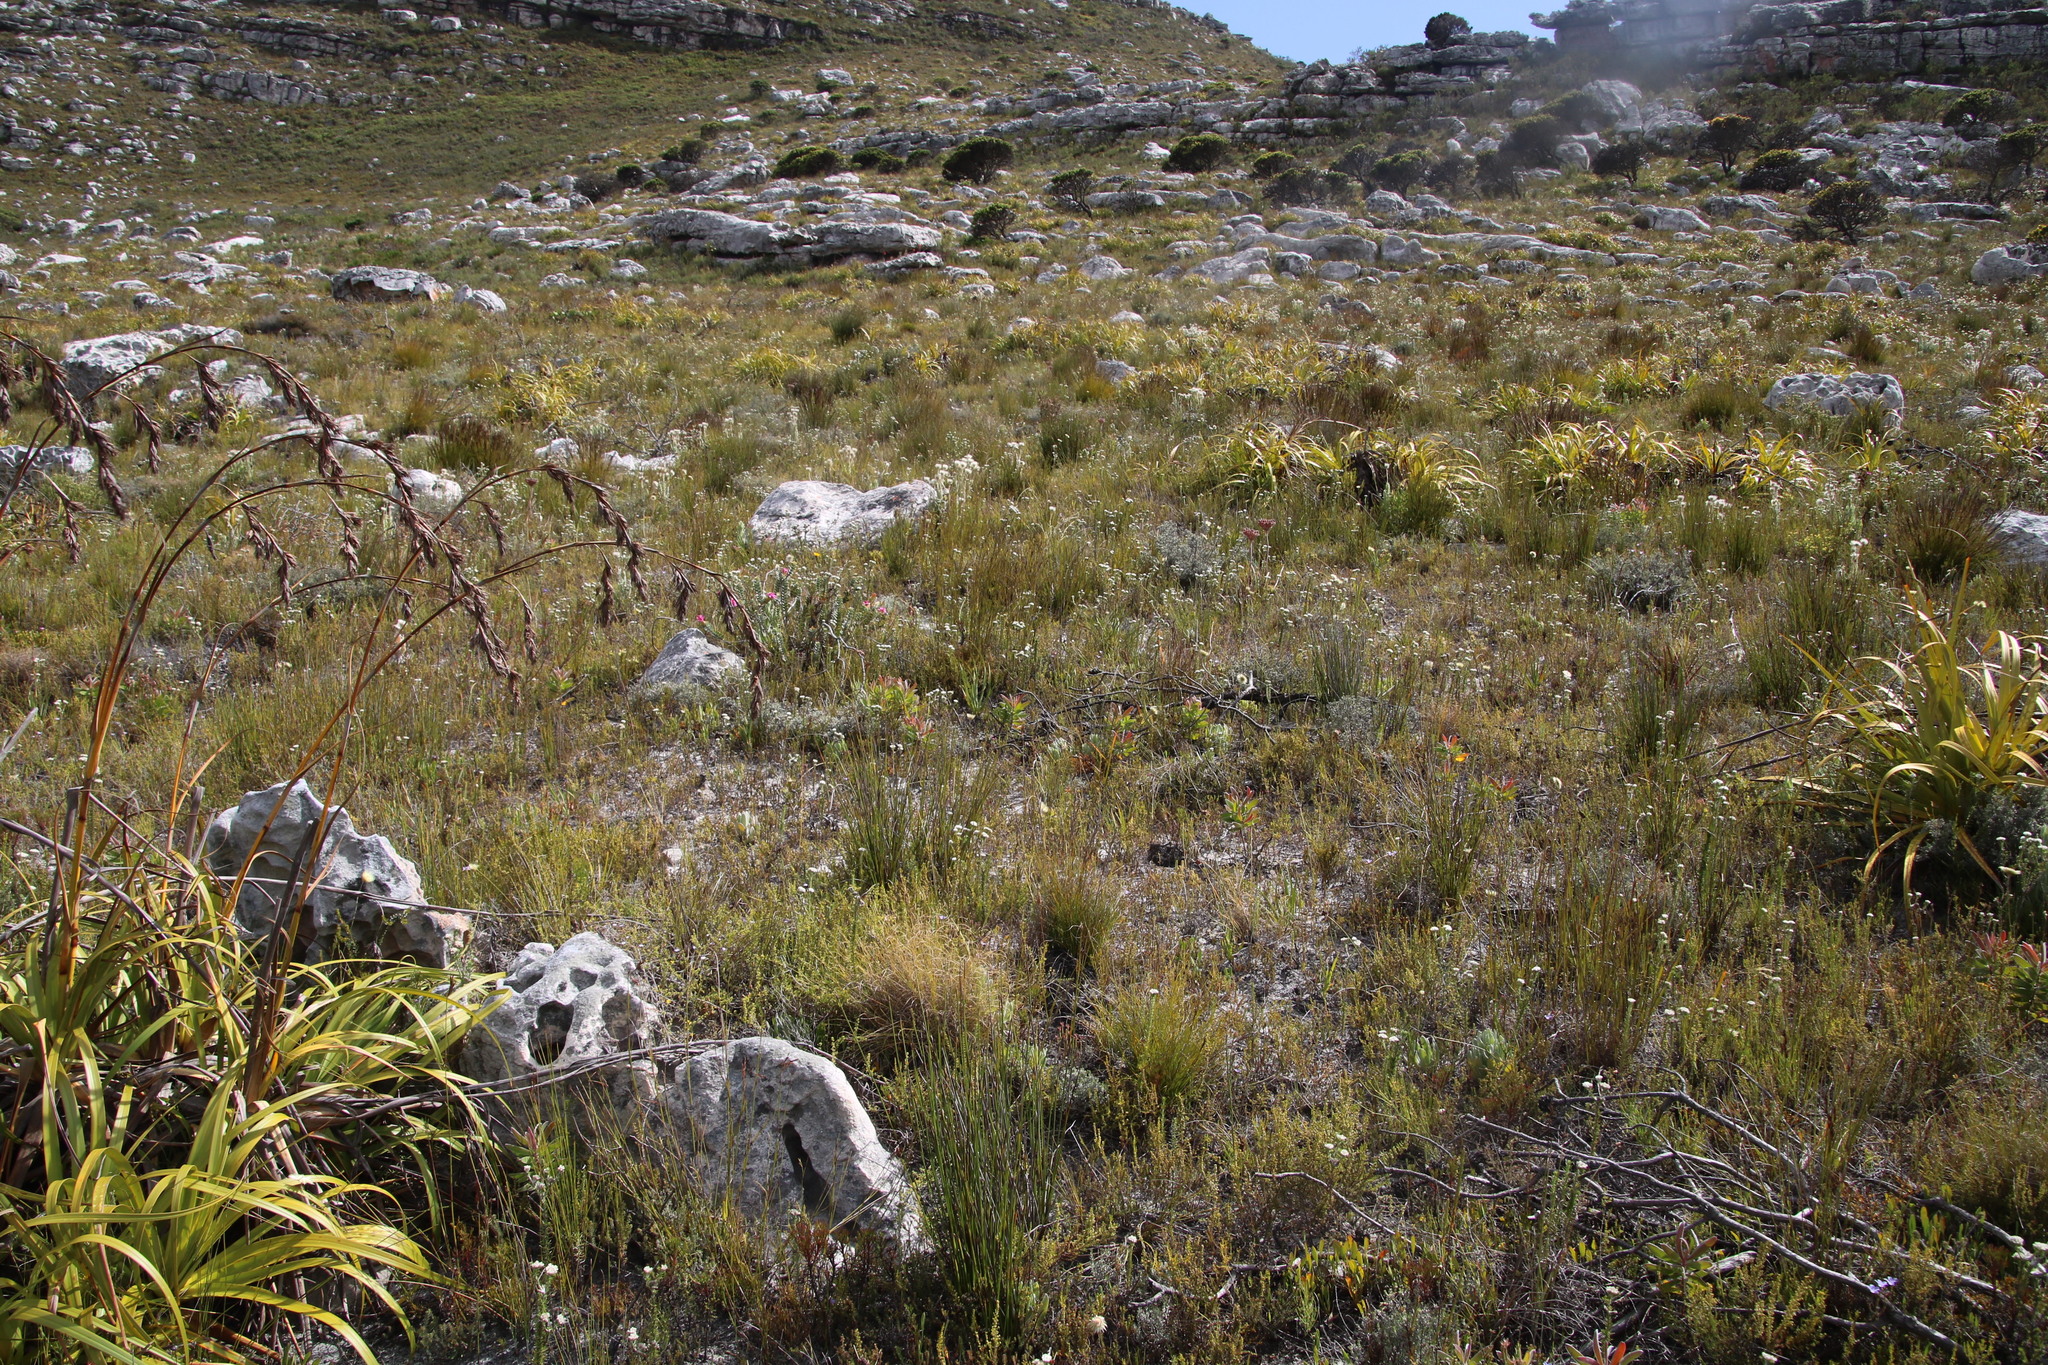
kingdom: Plantae
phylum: Tracheophyta
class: Magnoliopsida
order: Proteales
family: Proteaceae
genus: Leucadendron
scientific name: Leucadendron laureolum
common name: Golden sunshinebush
